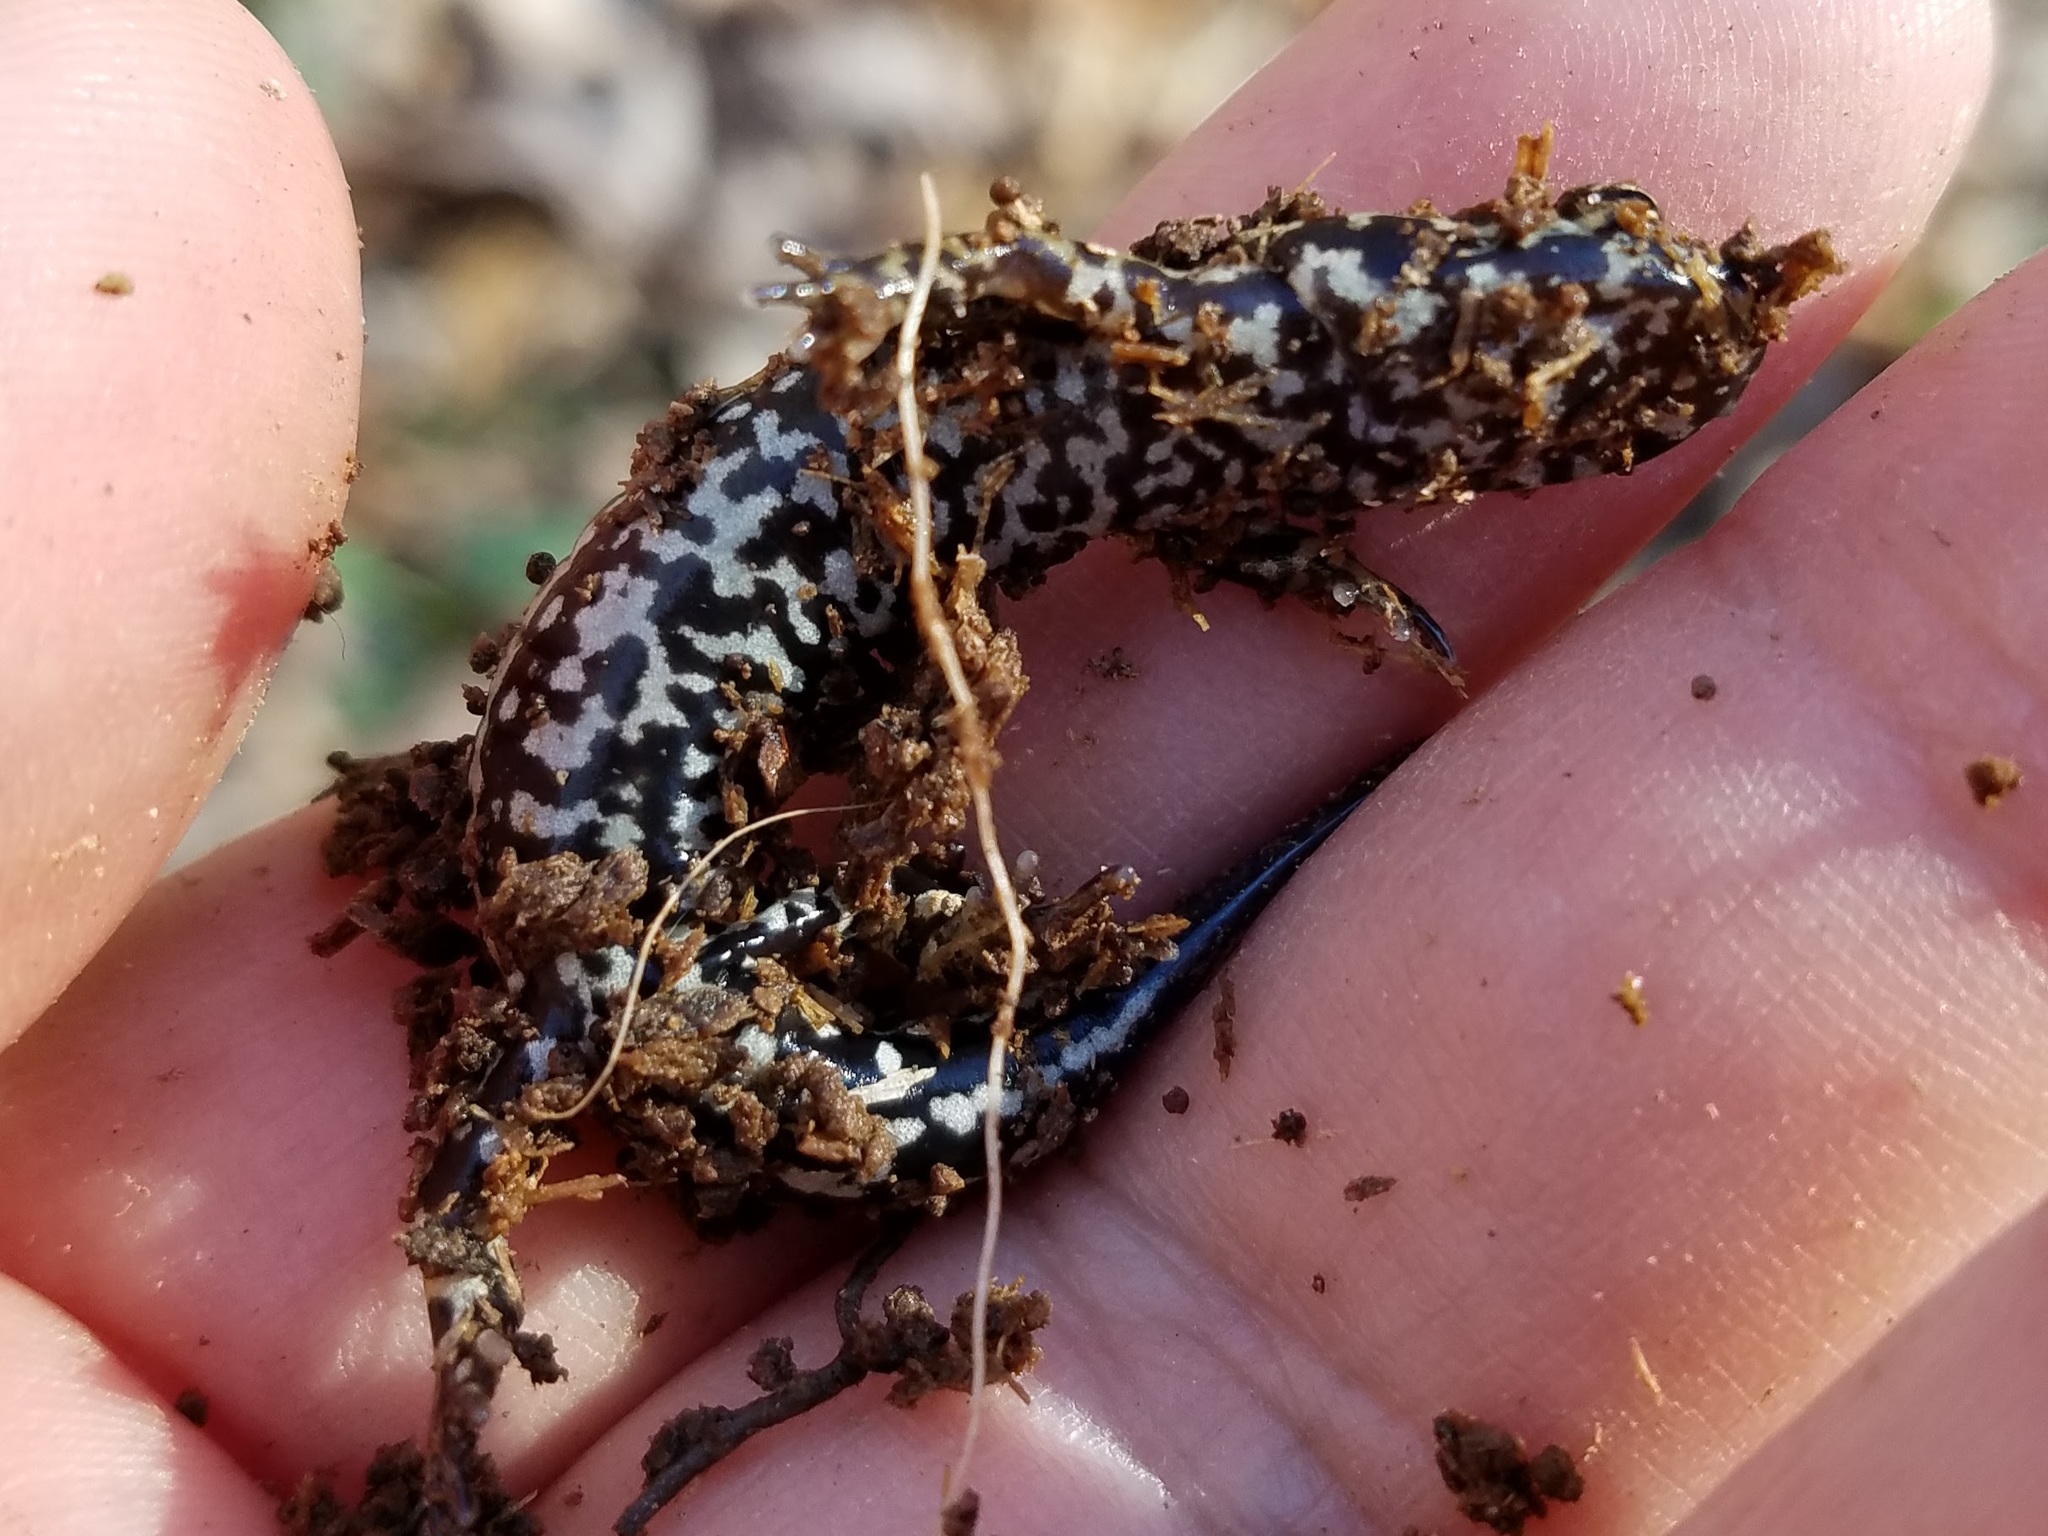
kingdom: Animalia
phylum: Chordata
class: Amphibia
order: Caudata
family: Plethodontidae
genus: Eurycea
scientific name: Eurycea guttolineata
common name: Three-lined salamander
